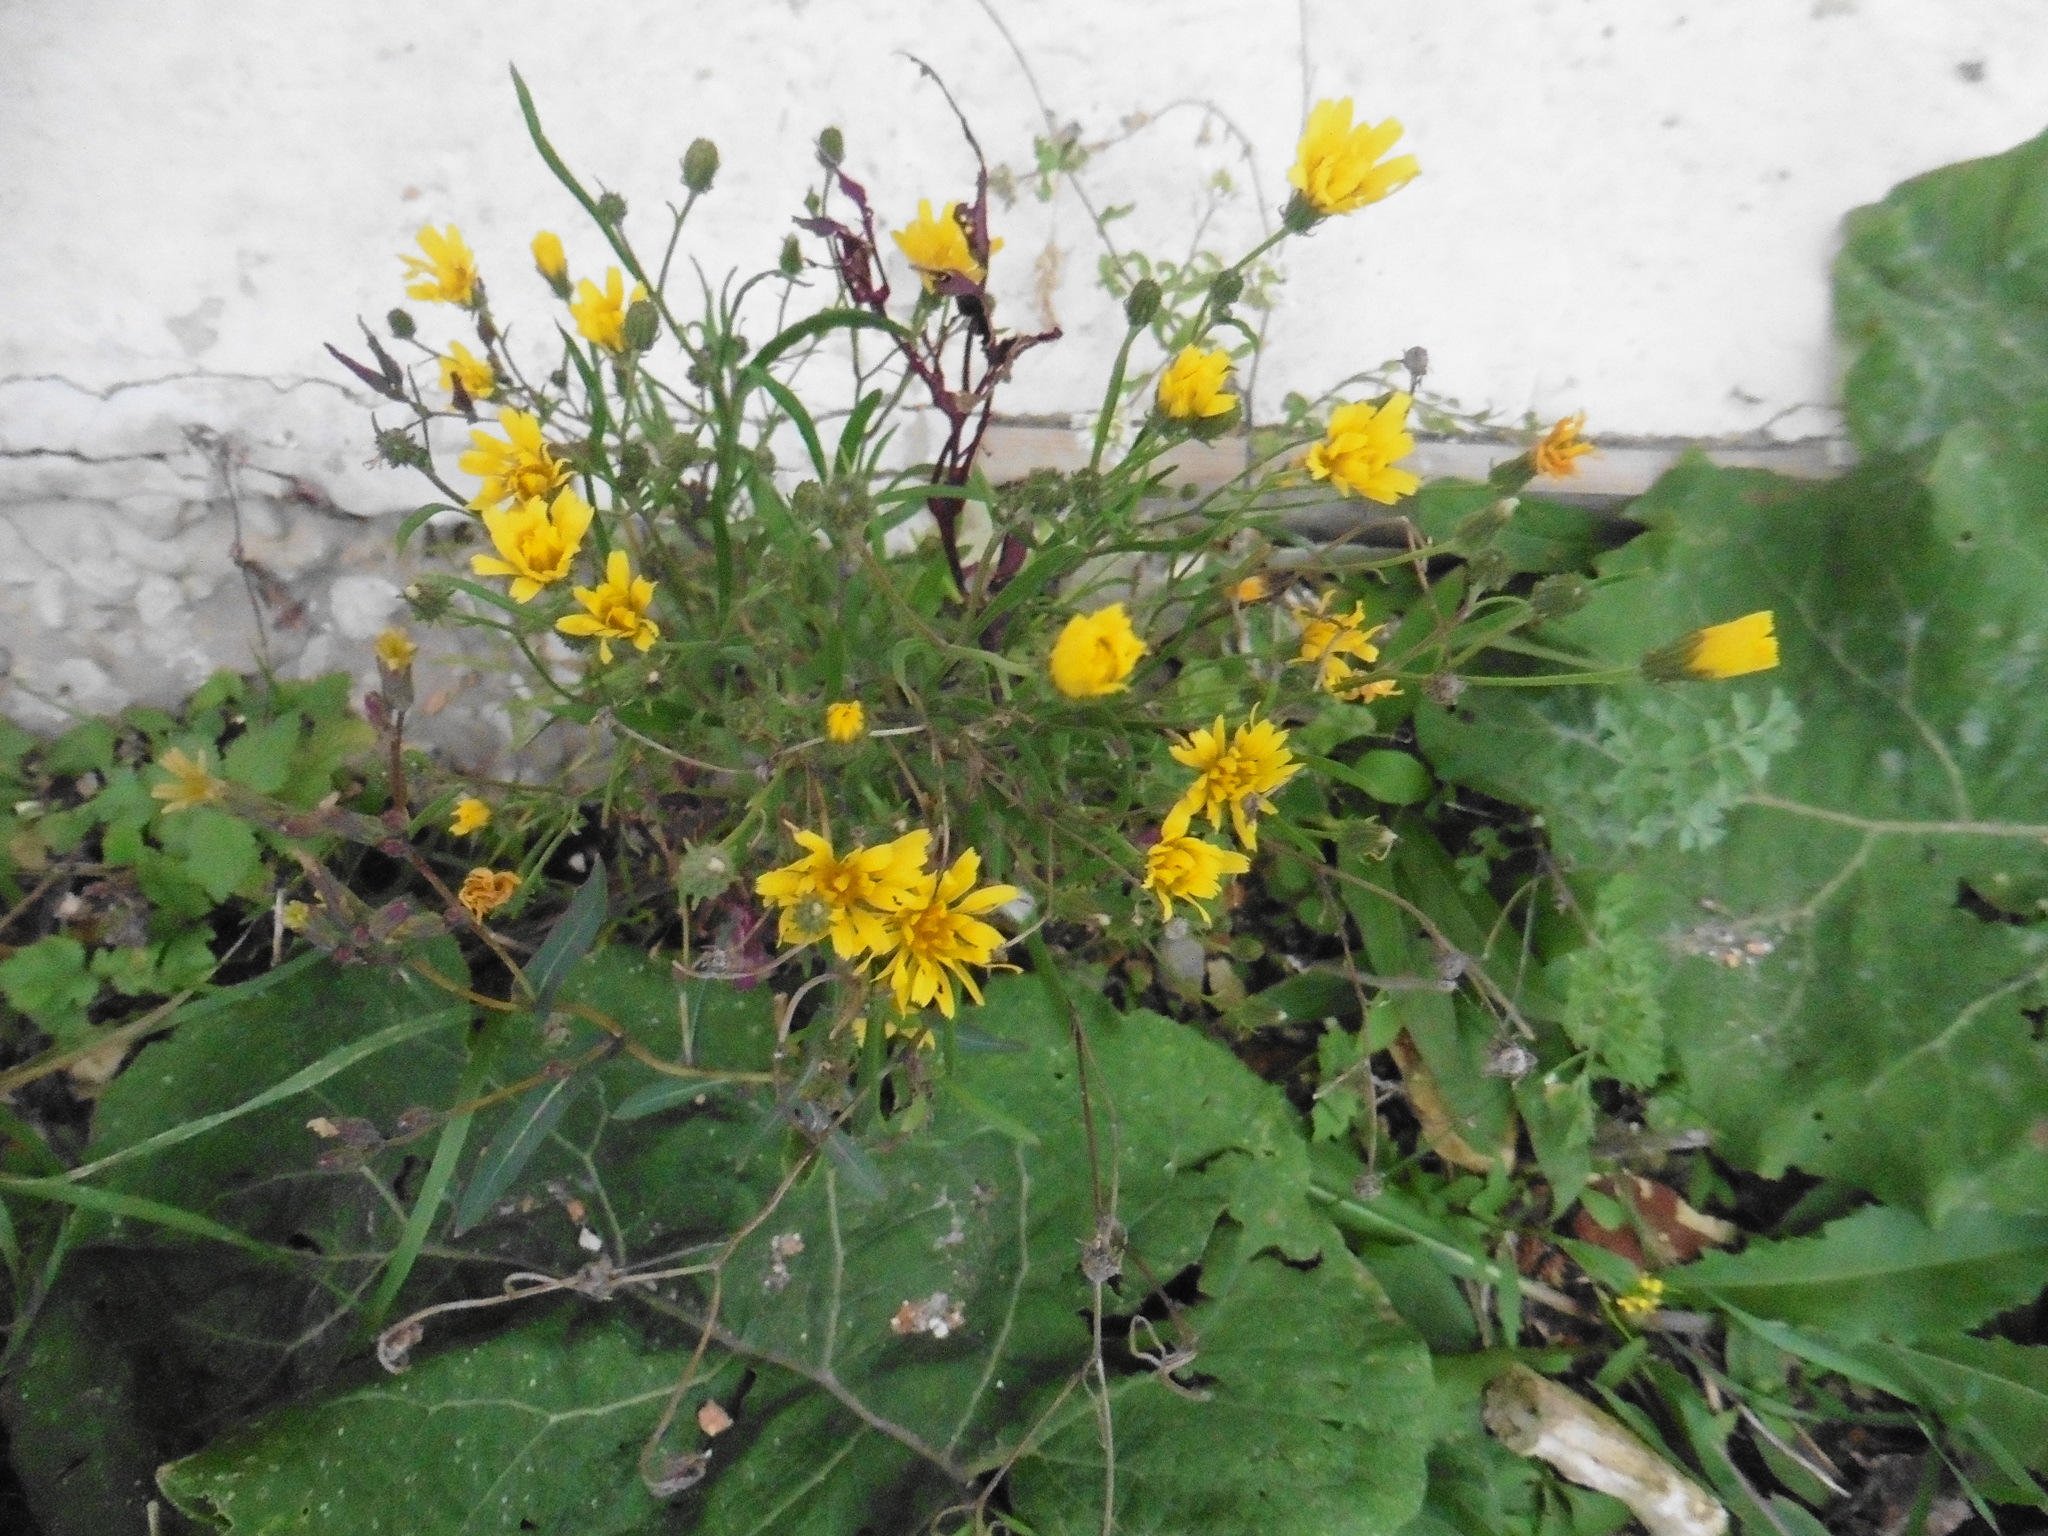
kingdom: Plantae
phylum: Tracheophyta
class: Magnoliopsida
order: Asterales
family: Asteraceae
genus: Crepis
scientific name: Crepis tectorum
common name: Narrow-leaved hawk's-beard
